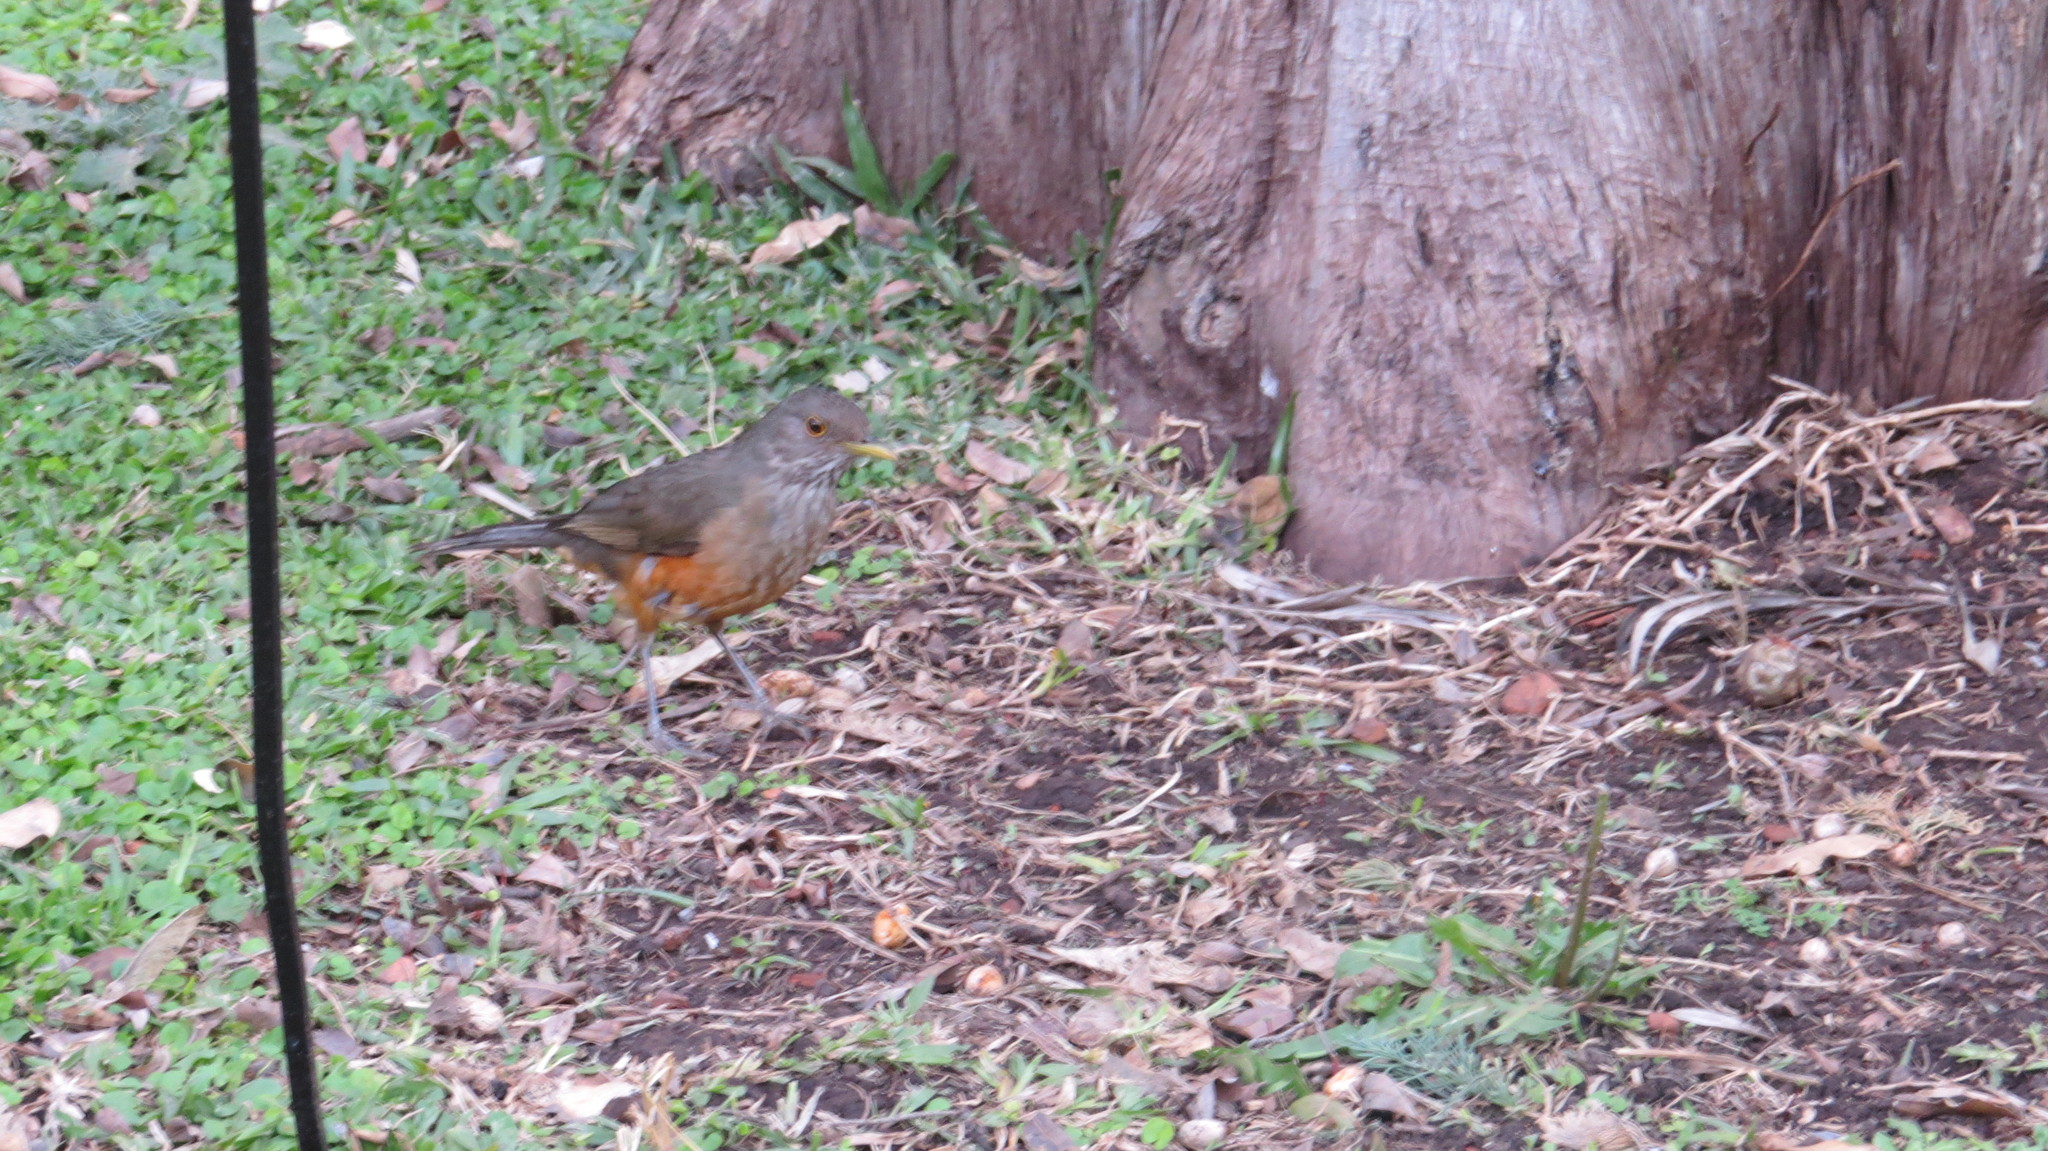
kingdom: Animalia
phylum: Chordata
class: Aves
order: Passeriformes
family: Turdidae
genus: Turdus
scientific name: Turdus rufiventris
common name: Rufous-bellied thrush
